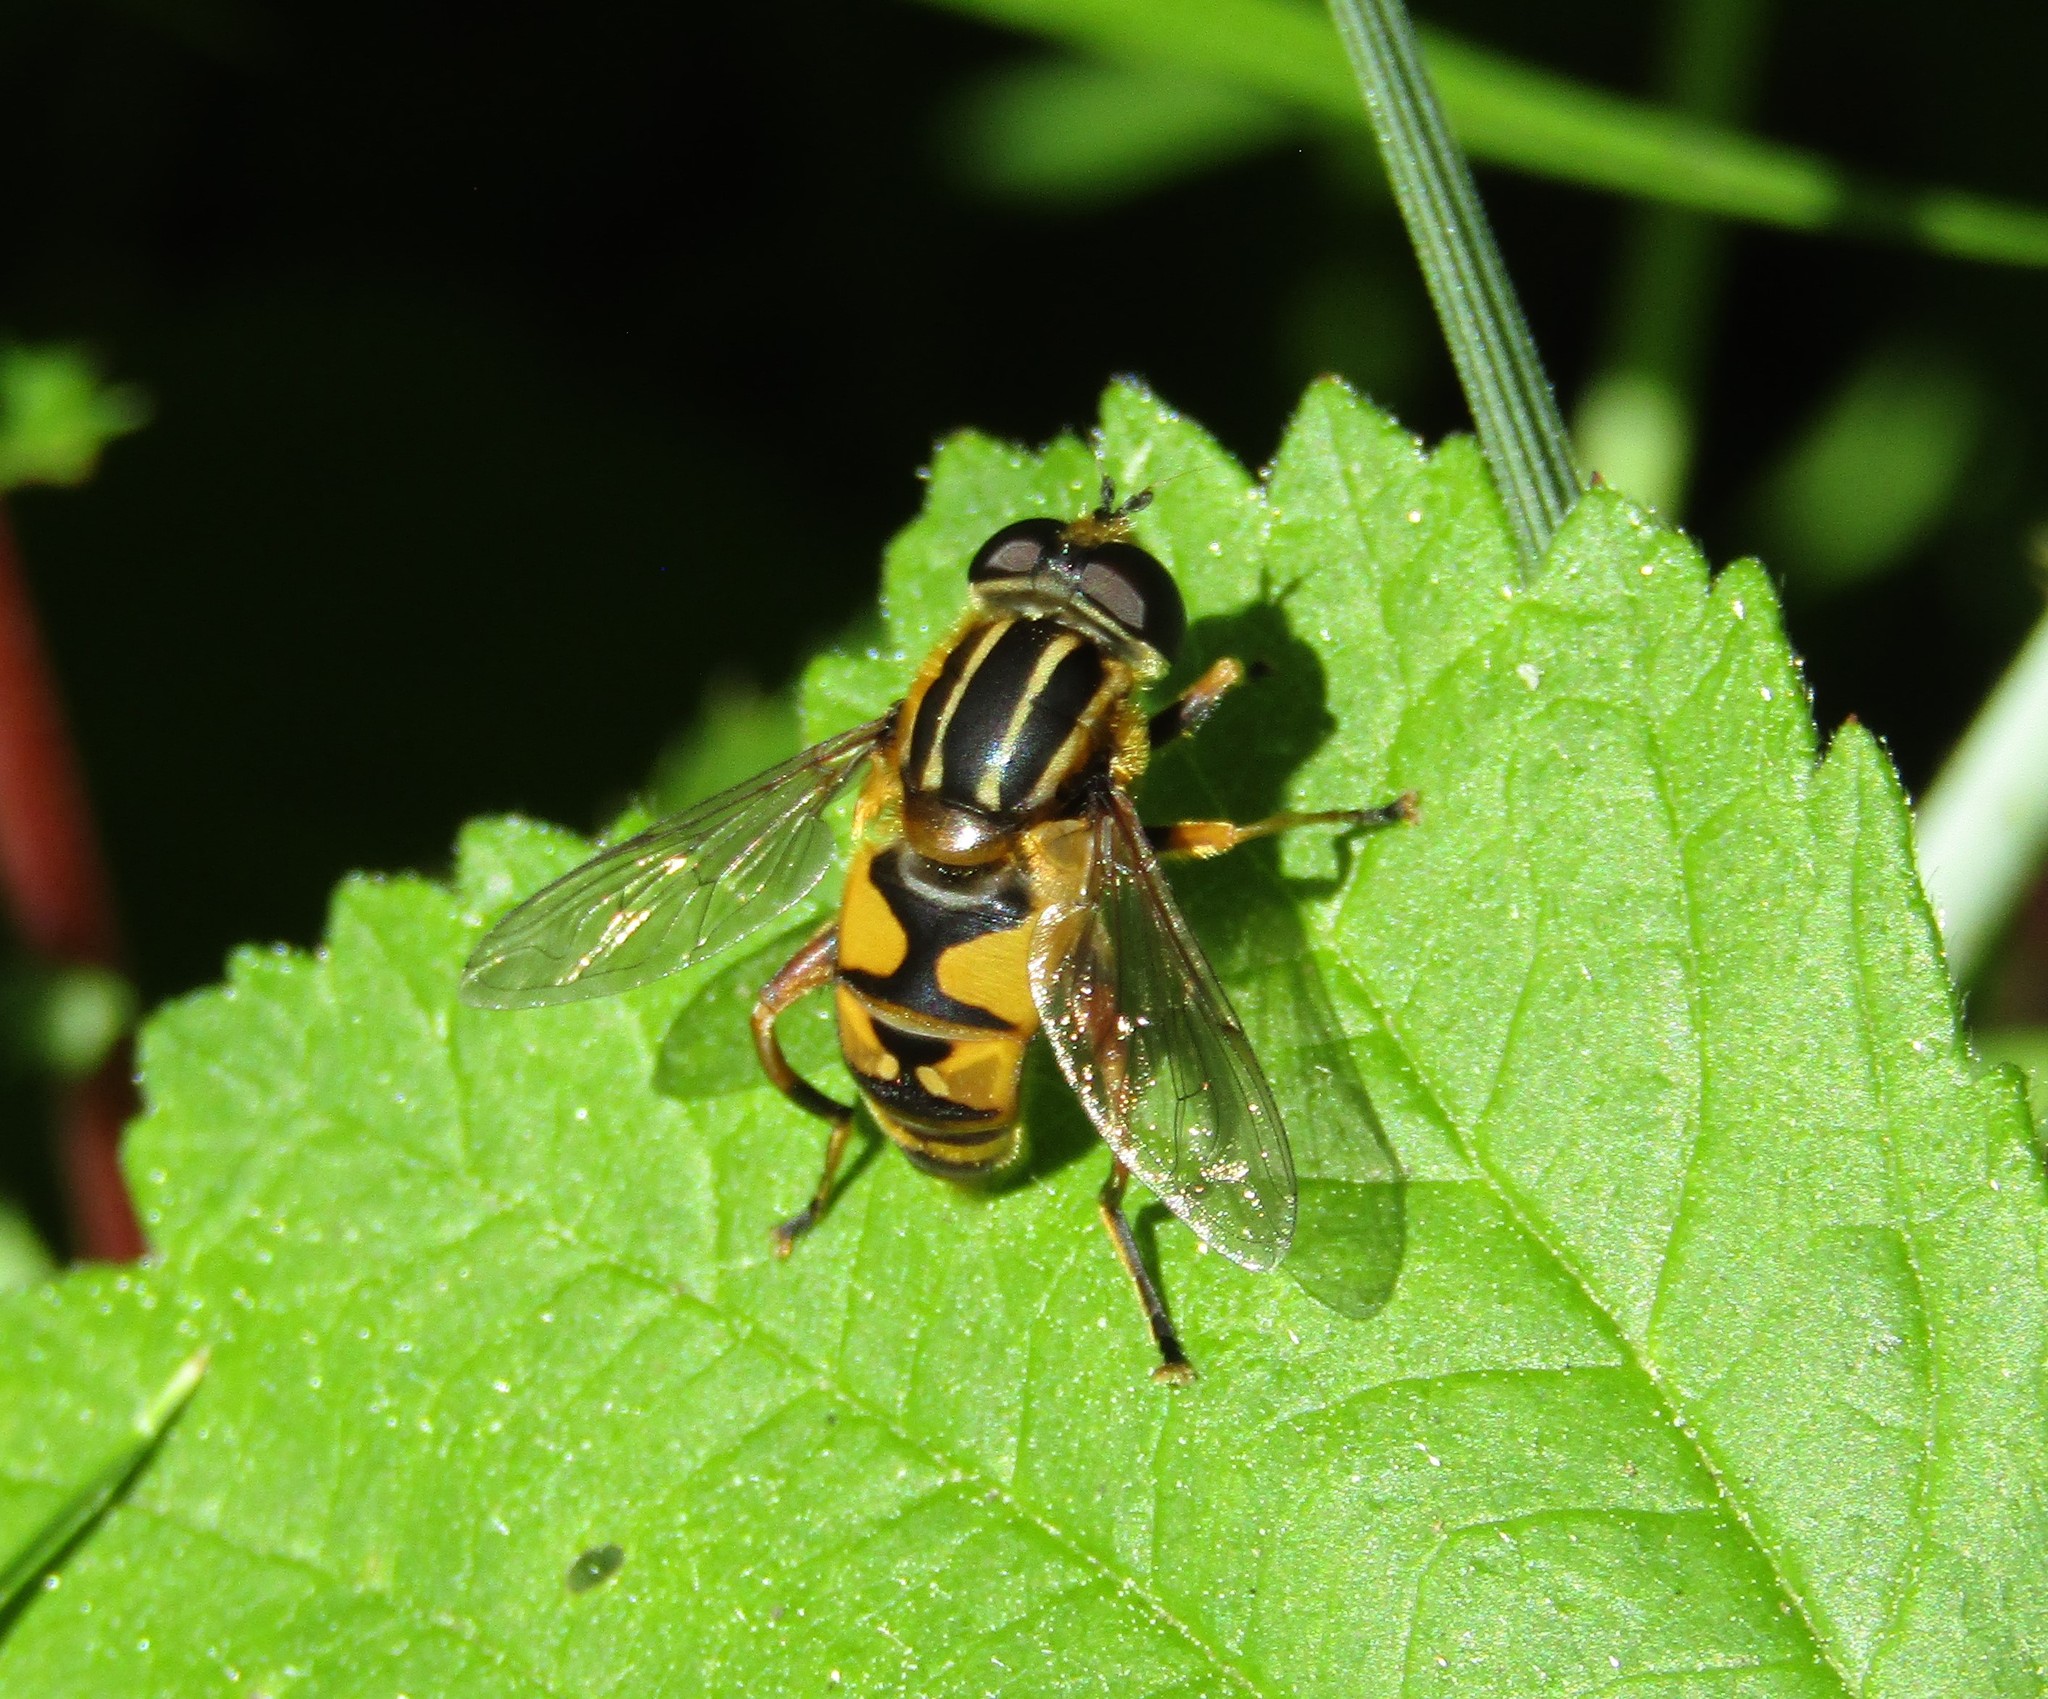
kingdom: Animalia
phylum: Arthropoda
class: Insecta
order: Diptera
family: Syrphidae
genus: Helophilus
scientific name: Helophilus pendulus
